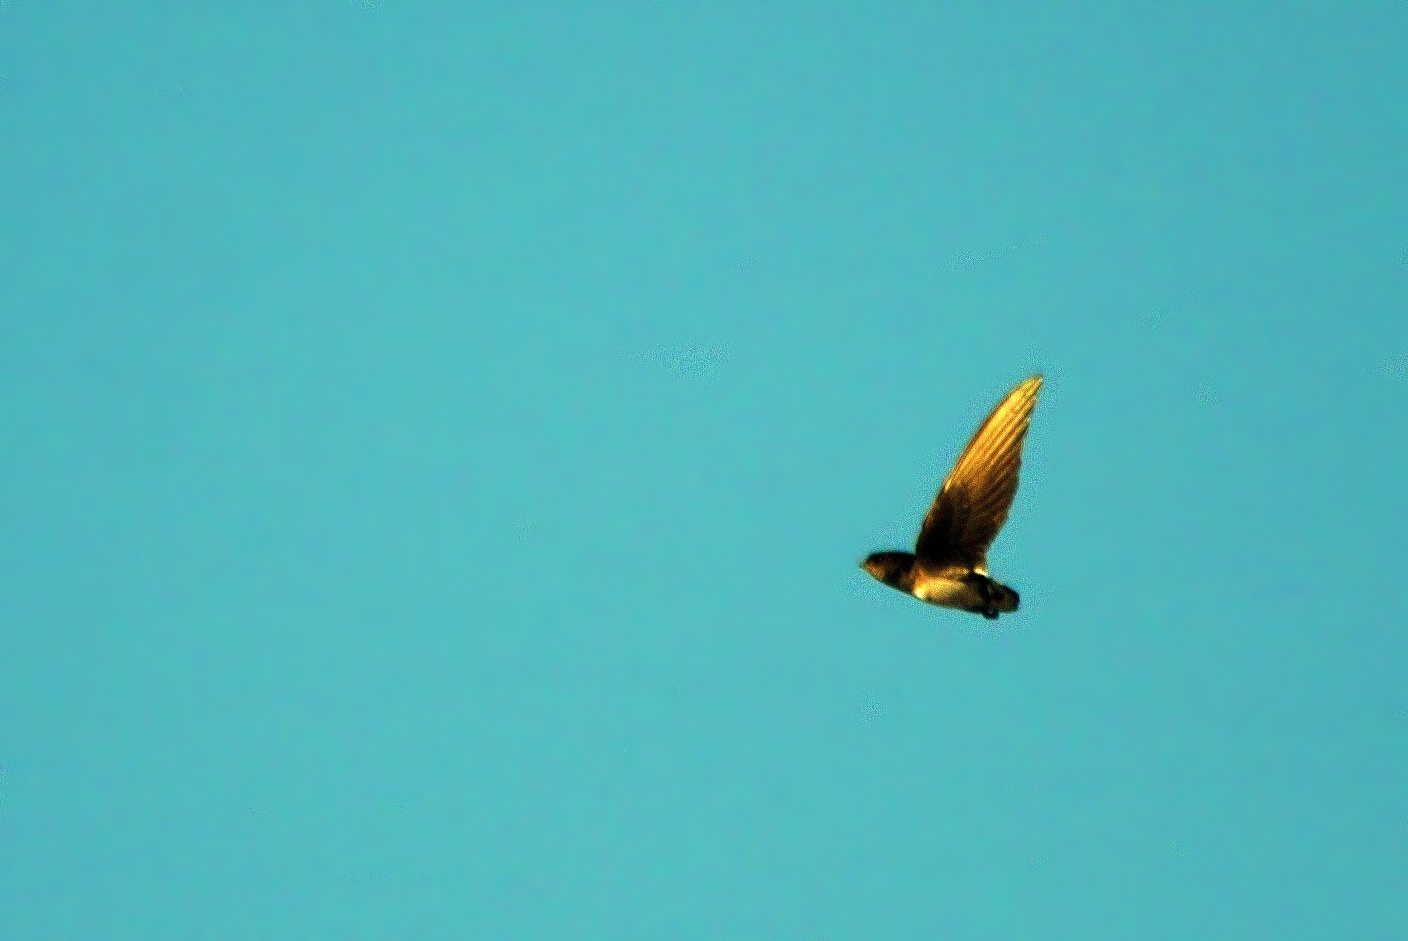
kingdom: Animalia
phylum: Chordata
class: Aves
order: Apodiformes
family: Apodidae
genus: Neafrapus
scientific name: Neafrapus boehmi
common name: Böhm's spinetail
